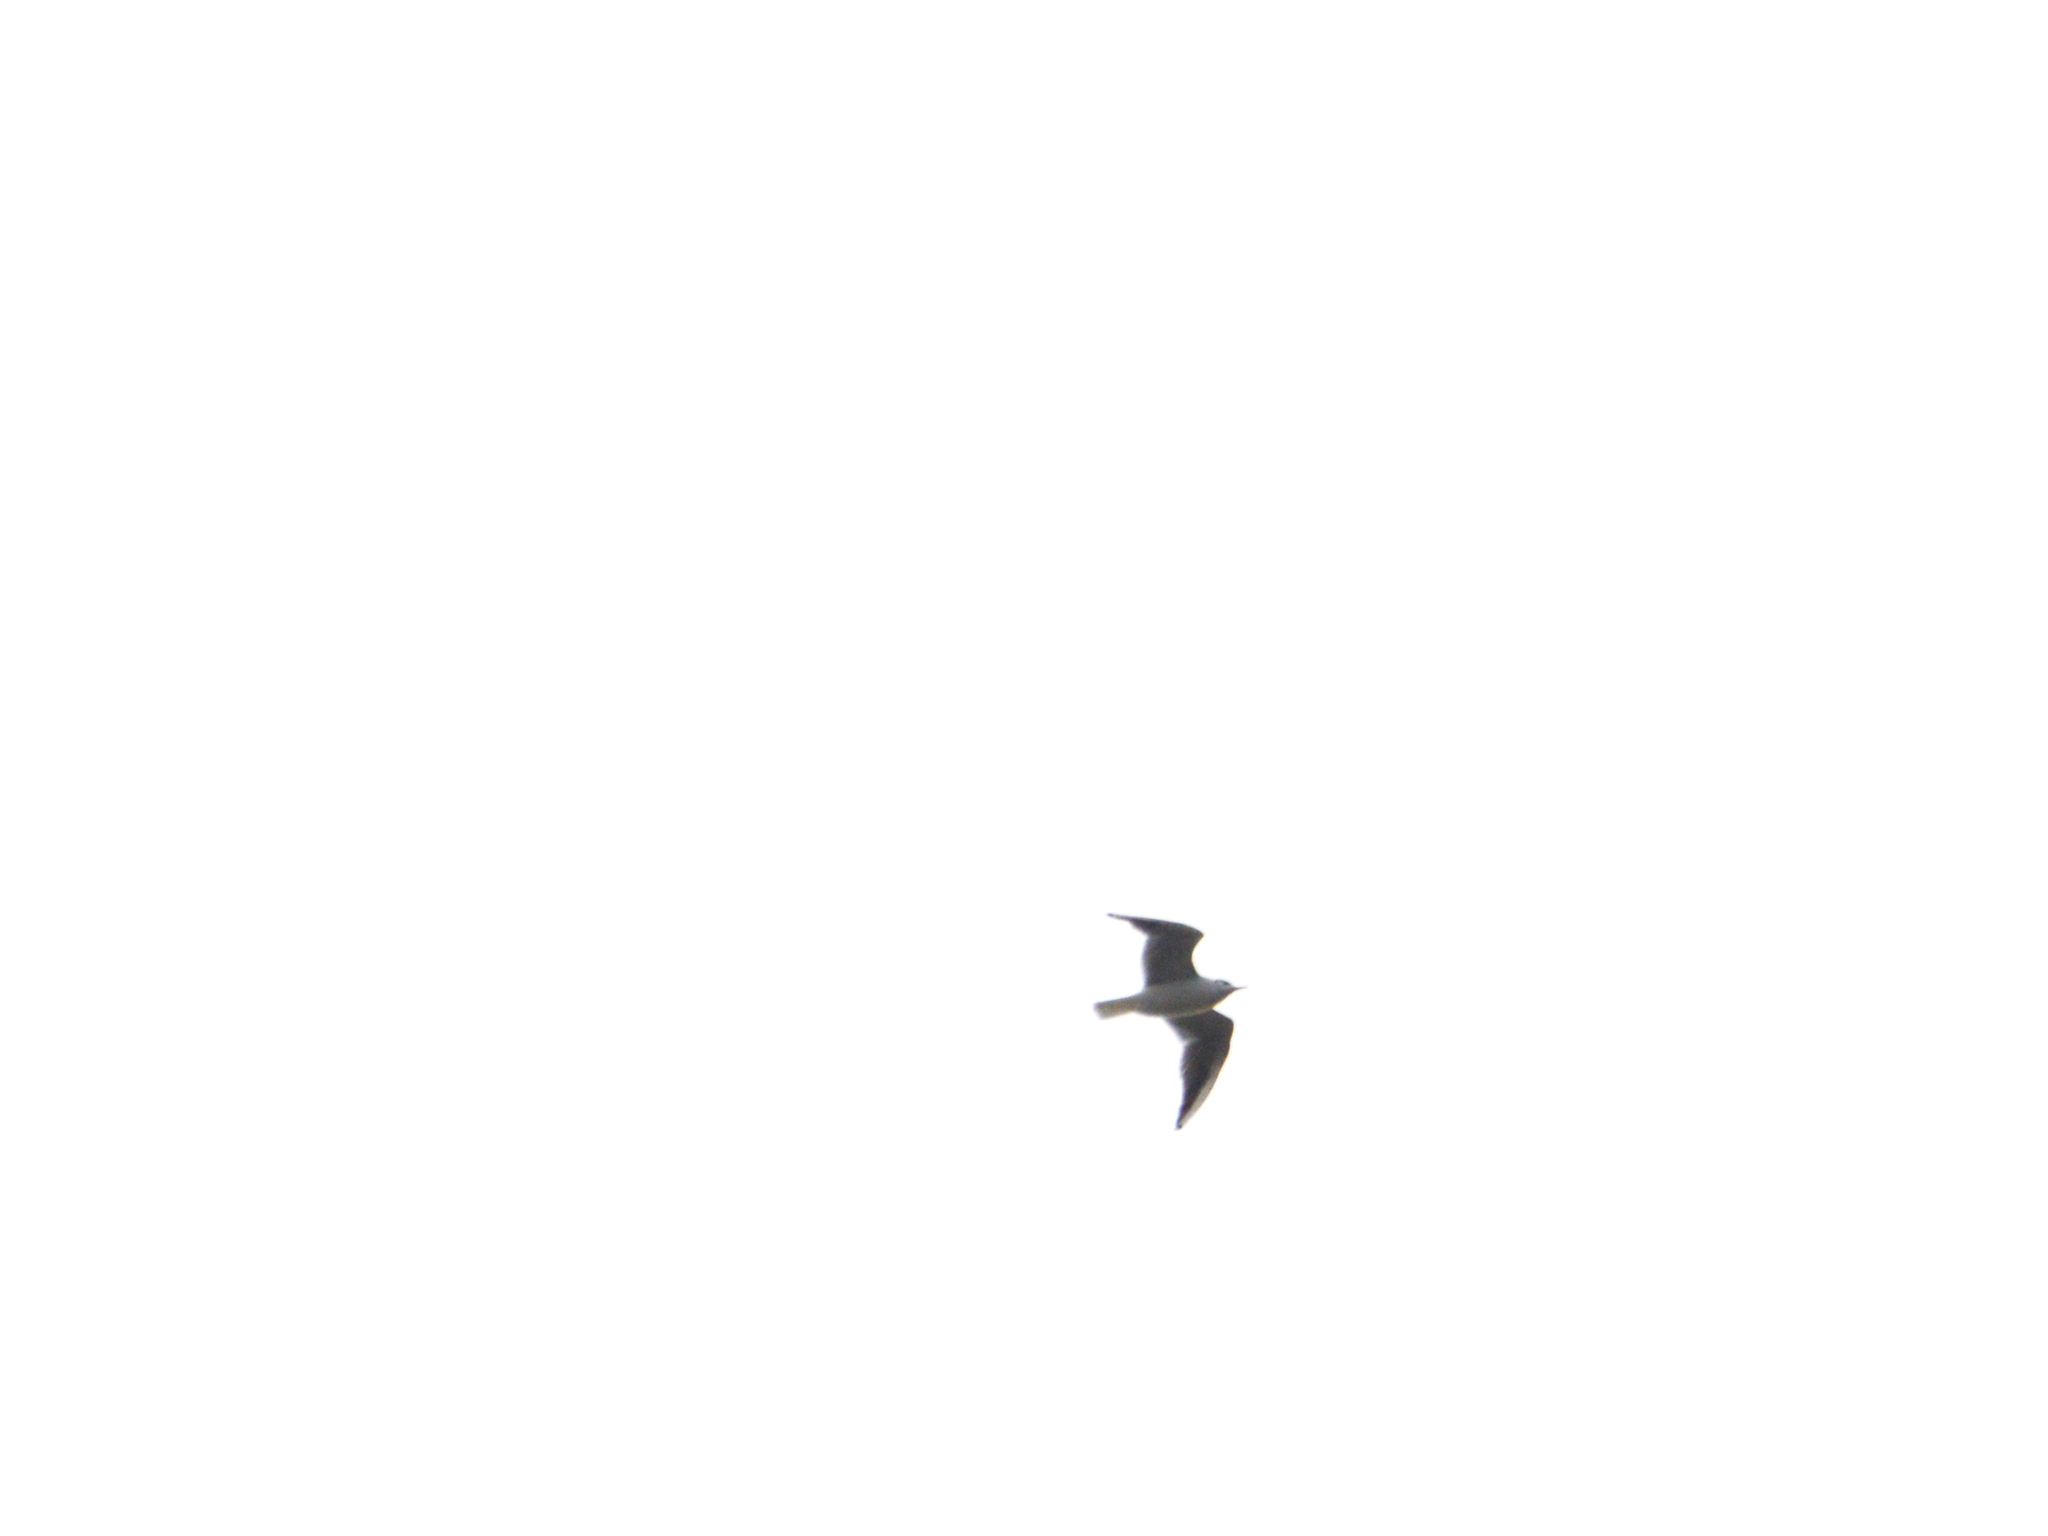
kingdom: Animalia
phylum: Chordata
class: Aves
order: Charadriiformes
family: Laridae
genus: Chroicocephalus
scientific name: Chroicocephalus ridibundus
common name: Black-headed gull
